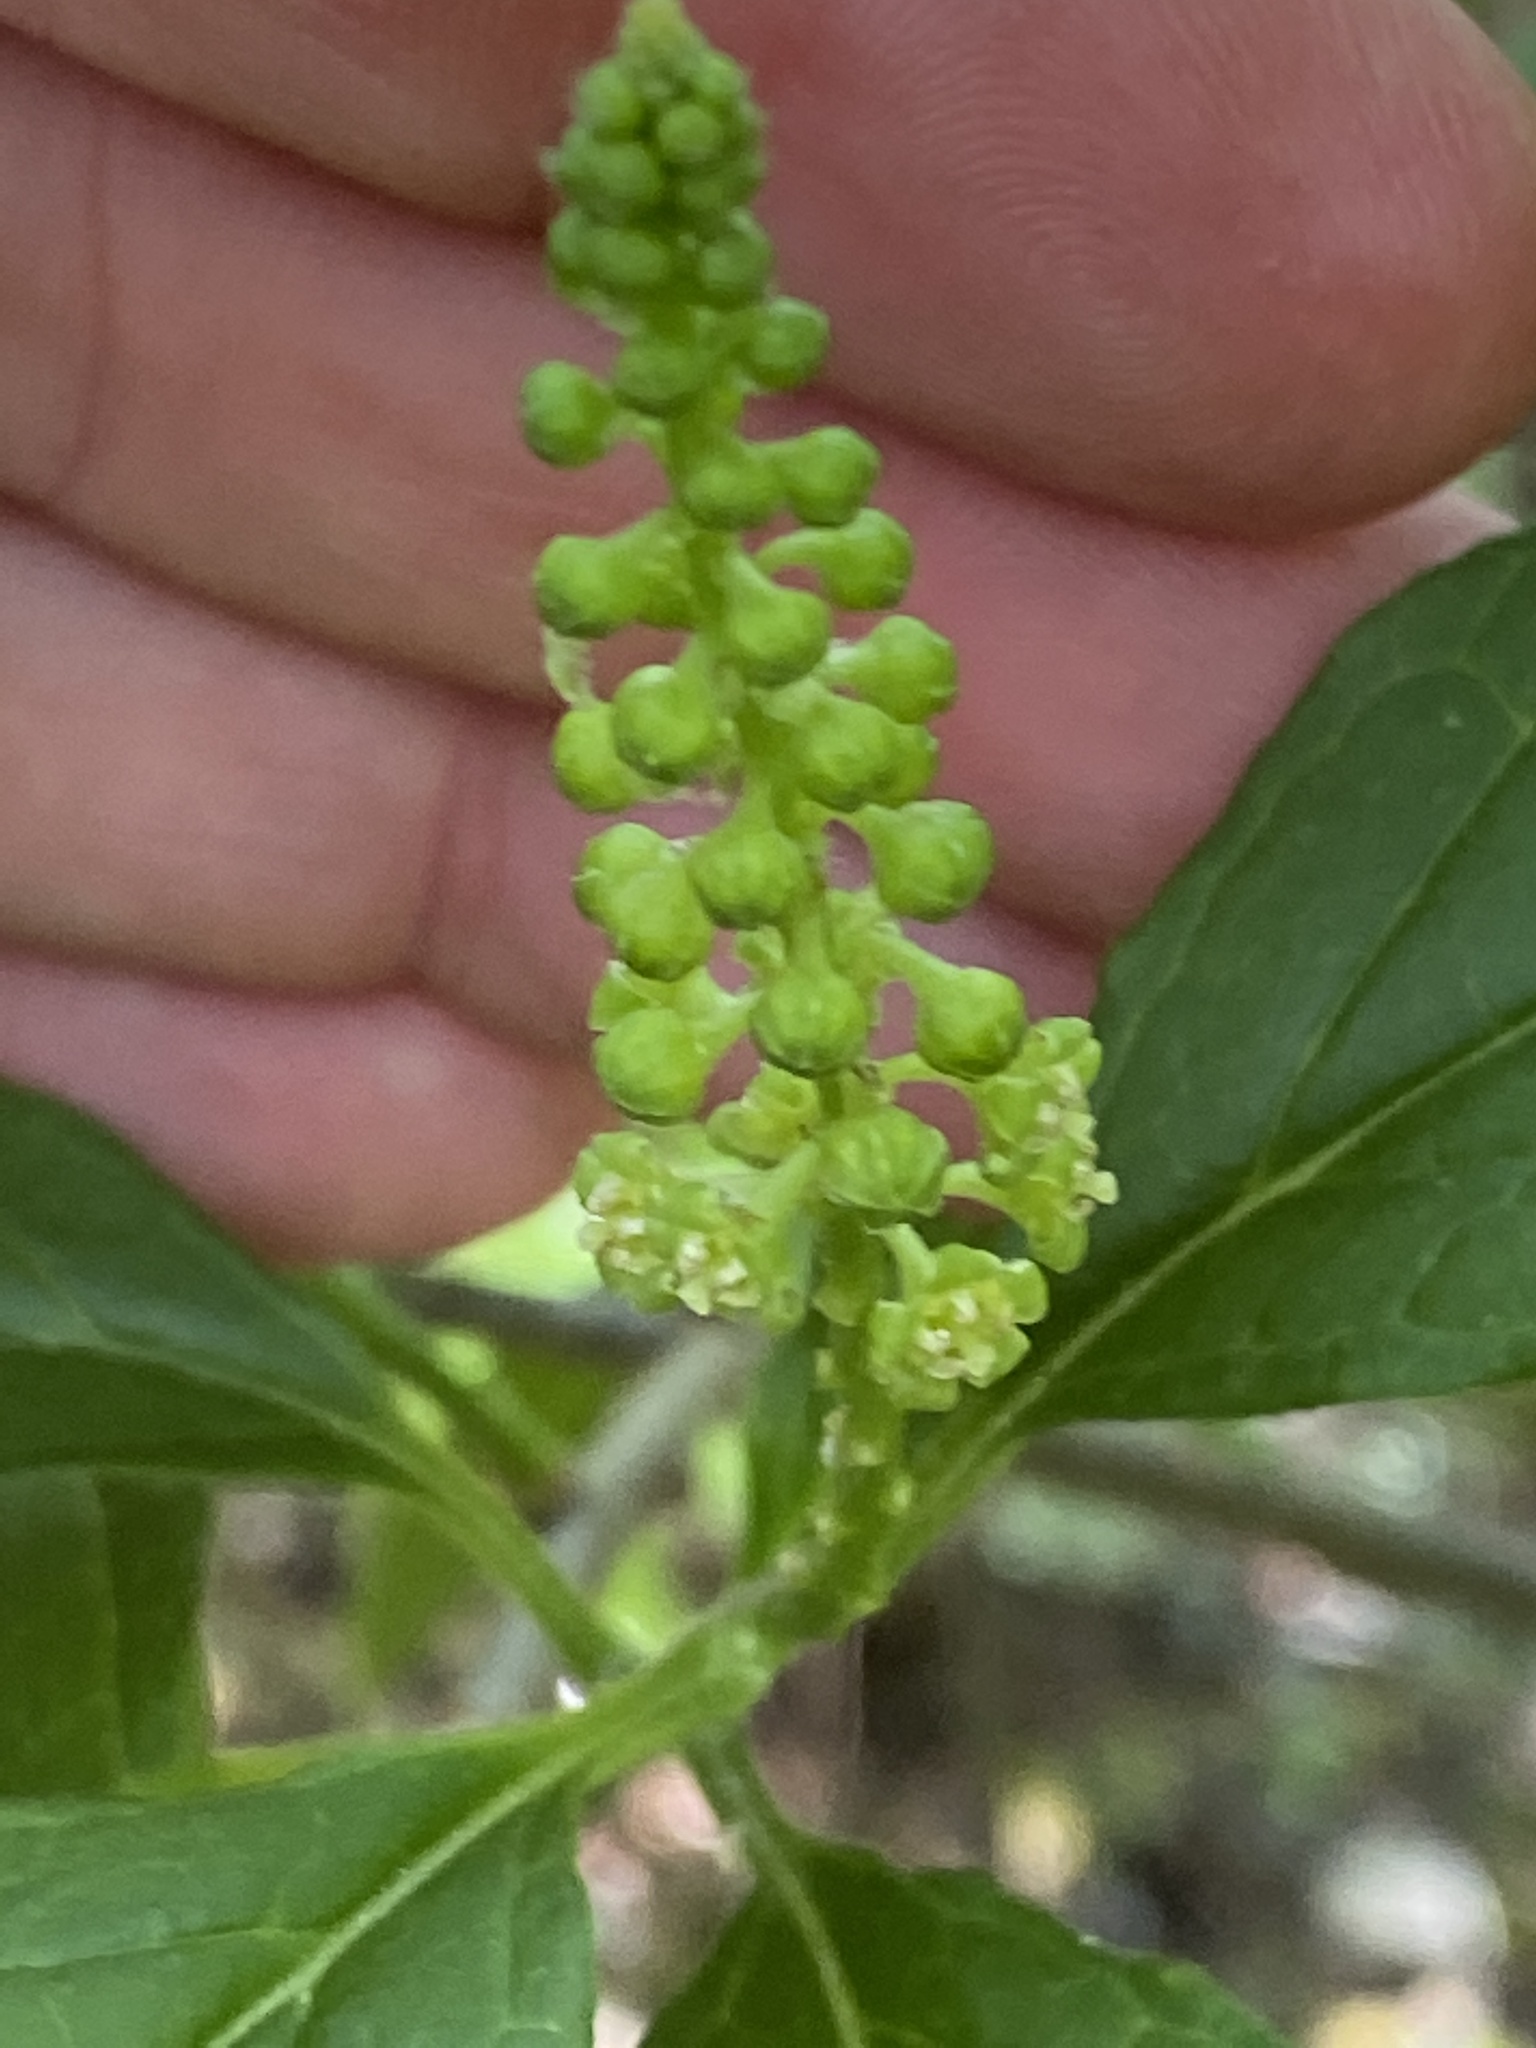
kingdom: Plantae
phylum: Tracheophyta
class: Magnoliopsida
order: Santalales
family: Cervantesiaceae
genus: Pyrularia
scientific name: Pyrularia pubera
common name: Oilnut
